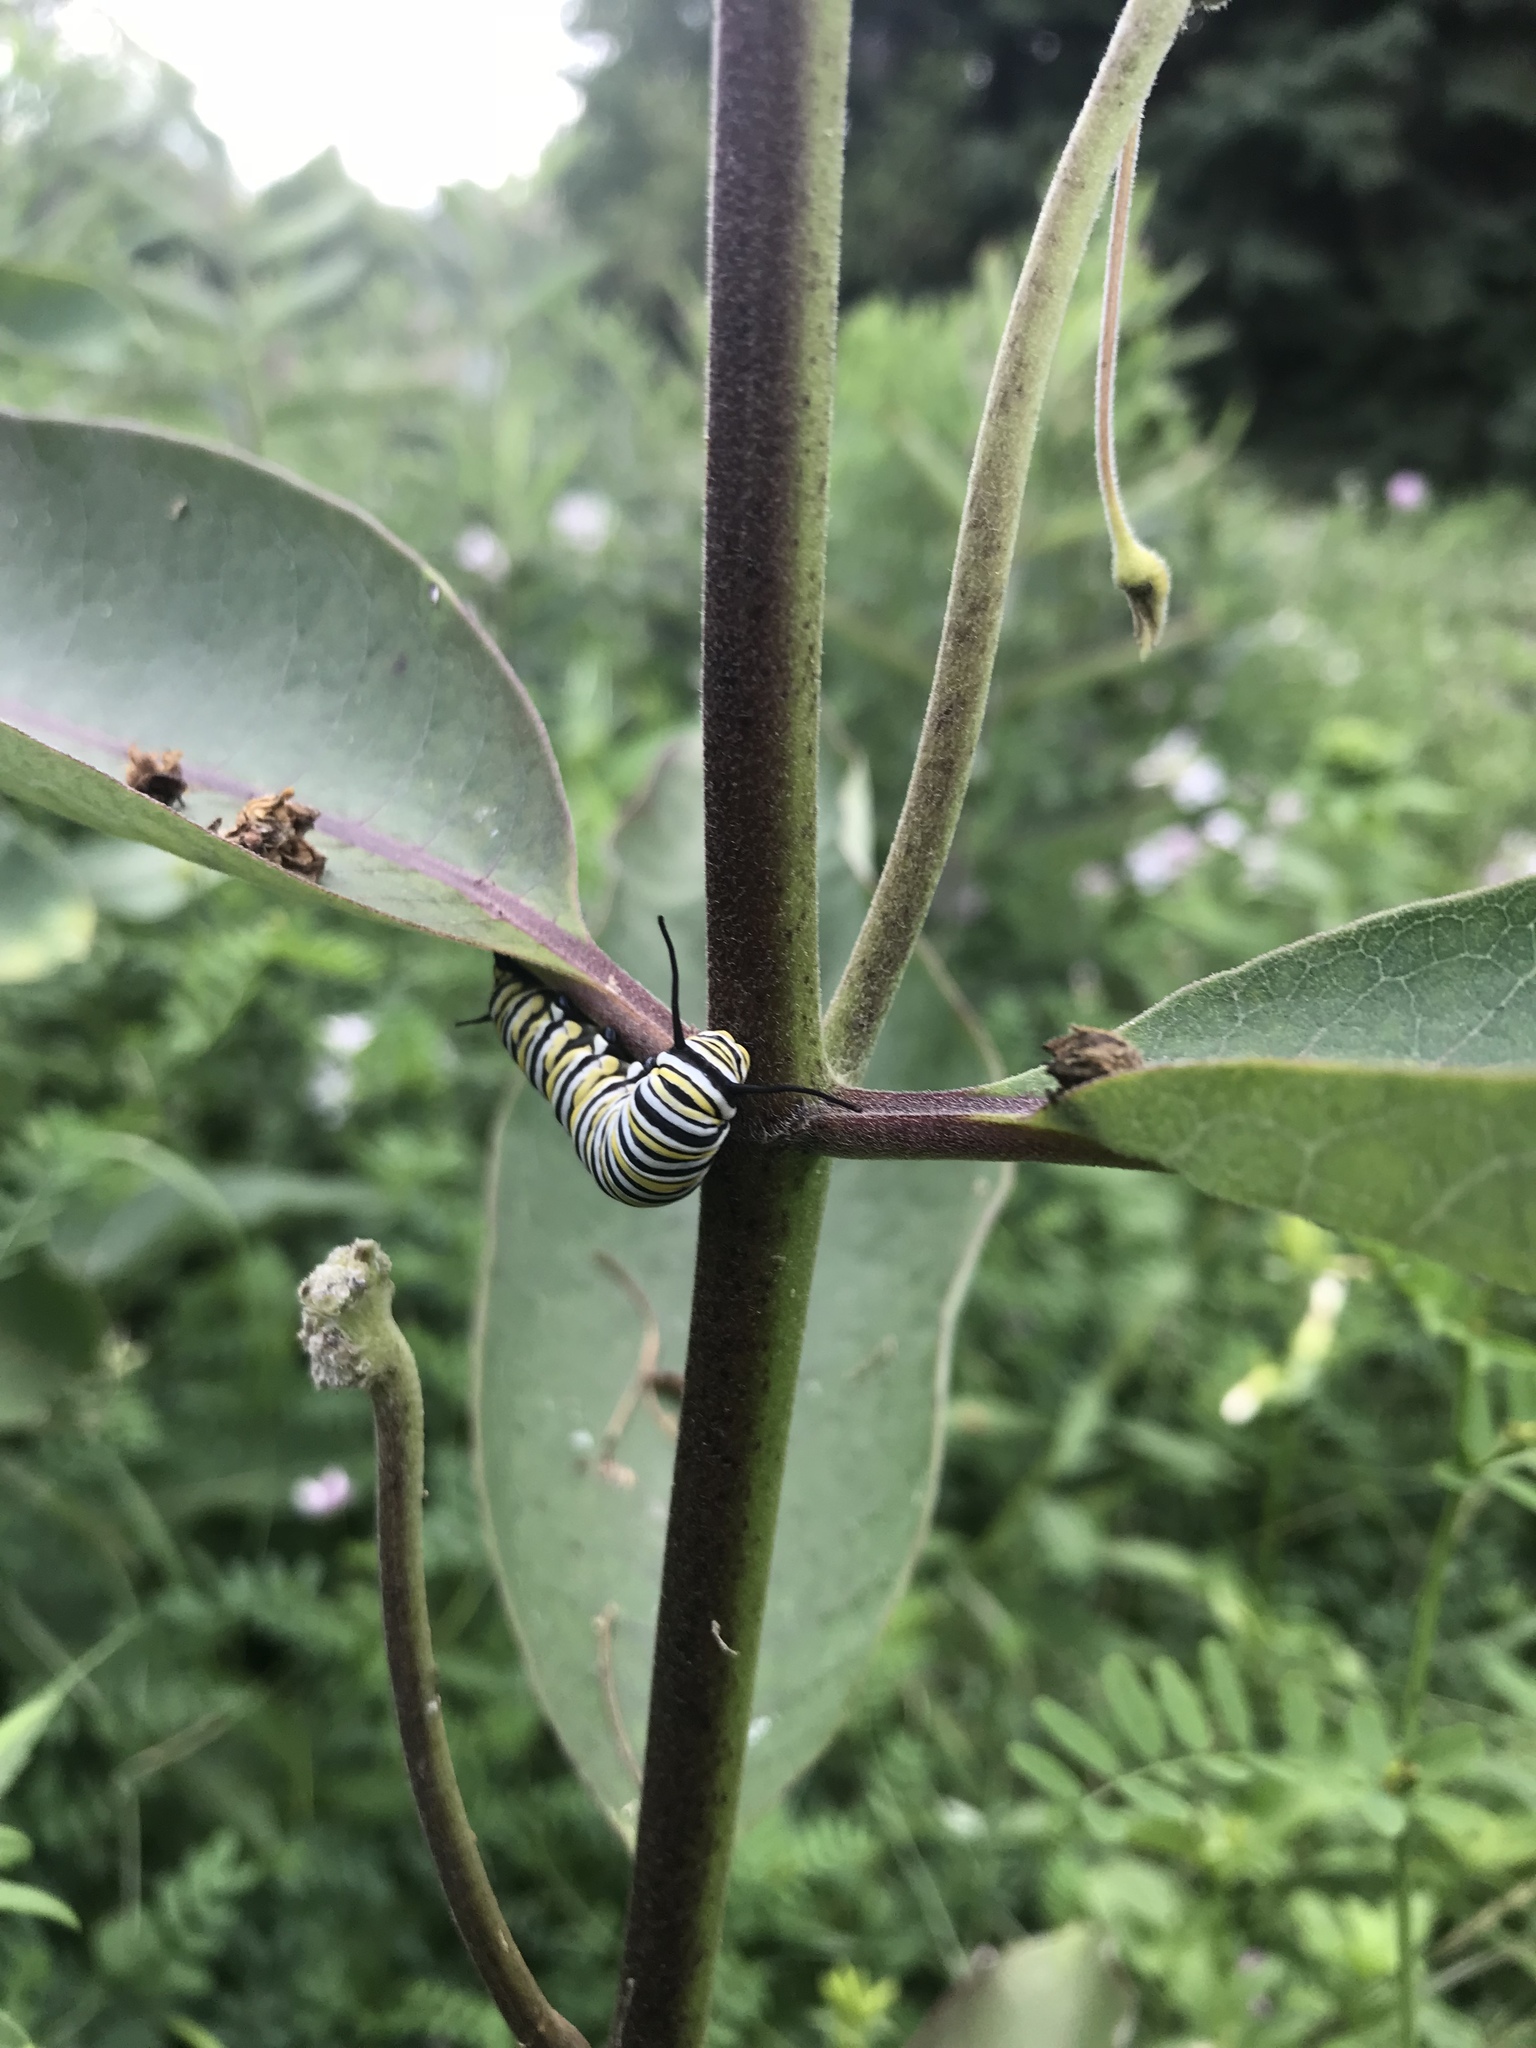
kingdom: Animalia
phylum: Arthropoda
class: Insecta
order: Lepidoptera
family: Nymphalidae
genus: Danaus
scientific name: Danaus plexippus
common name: Monarch
